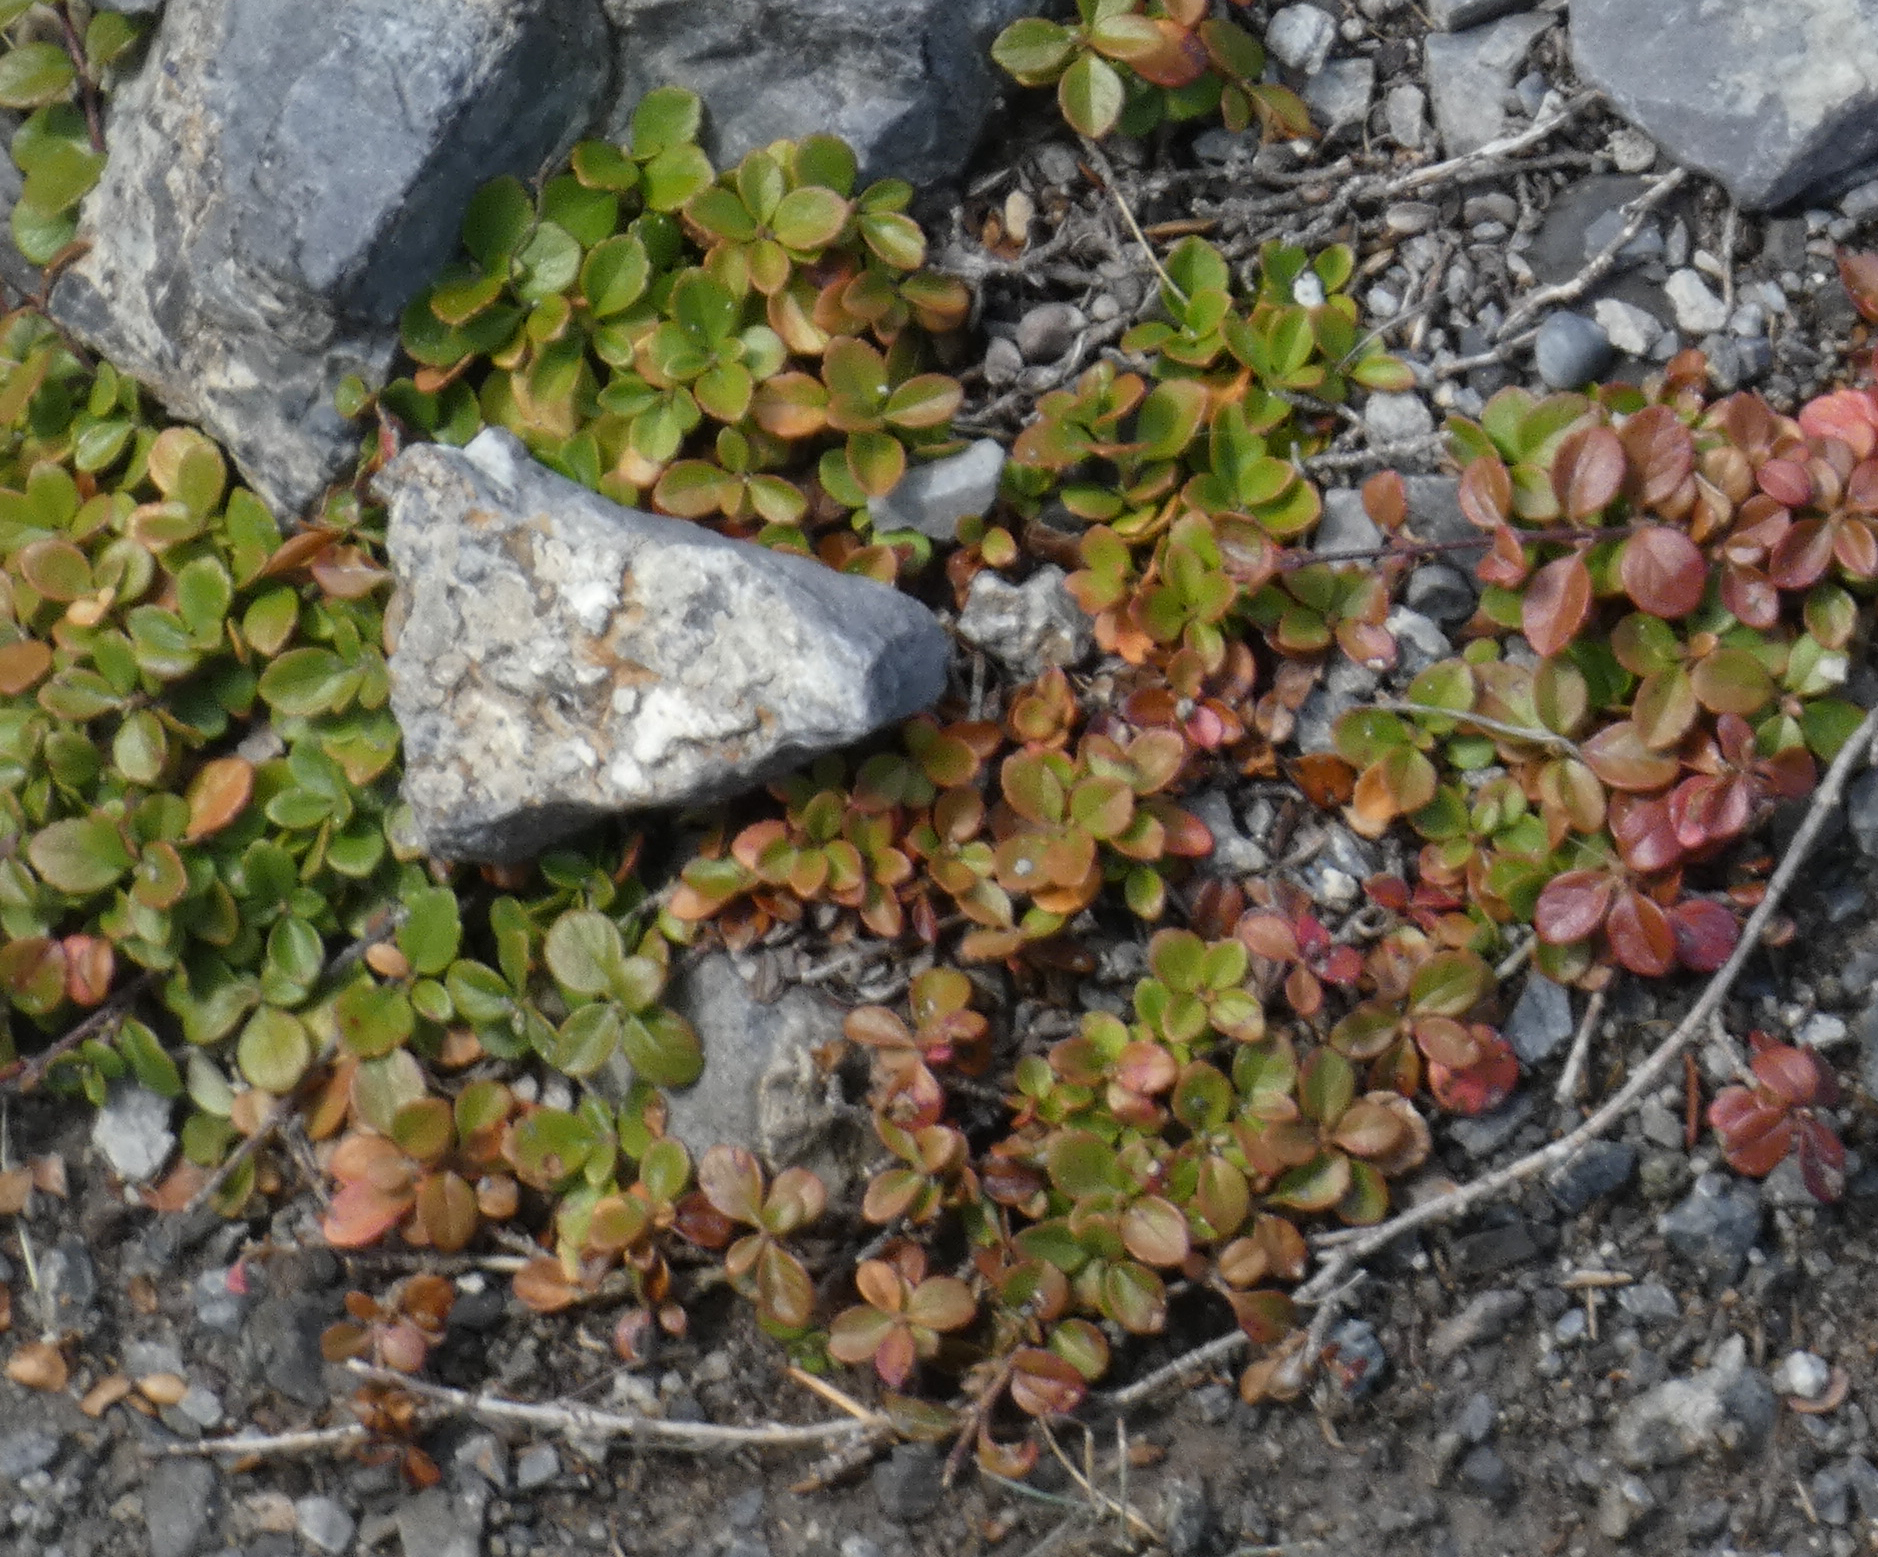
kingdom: Plantae
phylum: Tracheophyta
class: Magnoliopsida
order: Dipsacales
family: Caprifoliaceae
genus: Linnaea
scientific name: Linnaea borealis
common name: Twinflower
